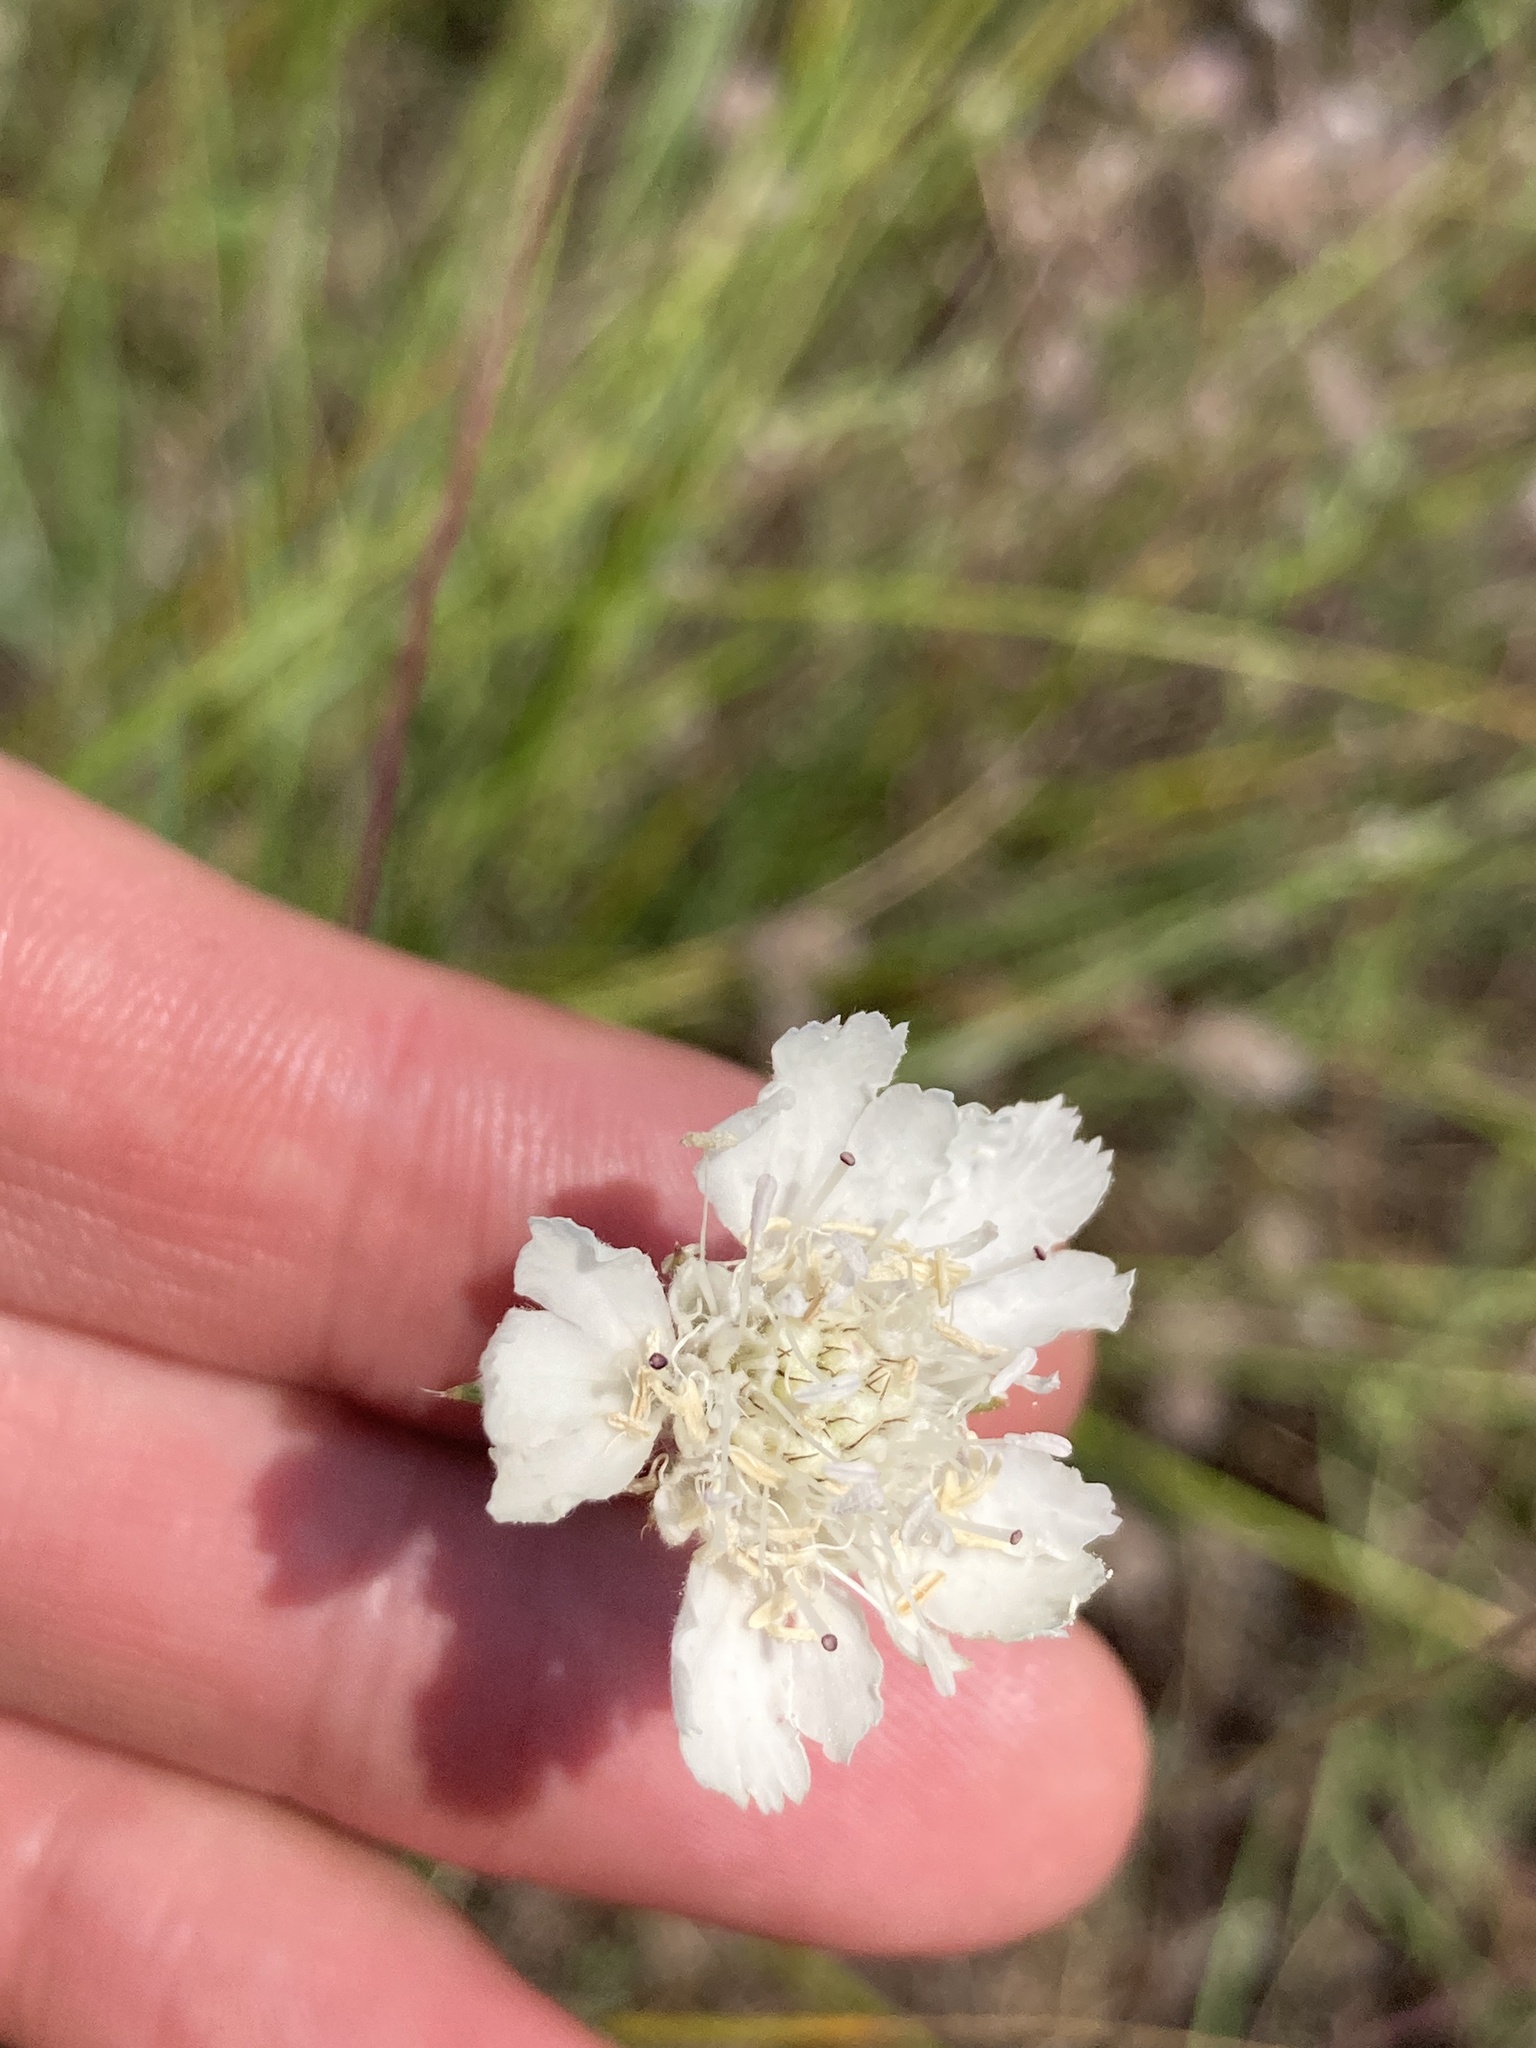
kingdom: Plantae
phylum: Tracheophyta
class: Magnoliopsida
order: Dipsacales
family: Caprifoliaceae
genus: Lomelosia
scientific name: Lomelosia argentea
